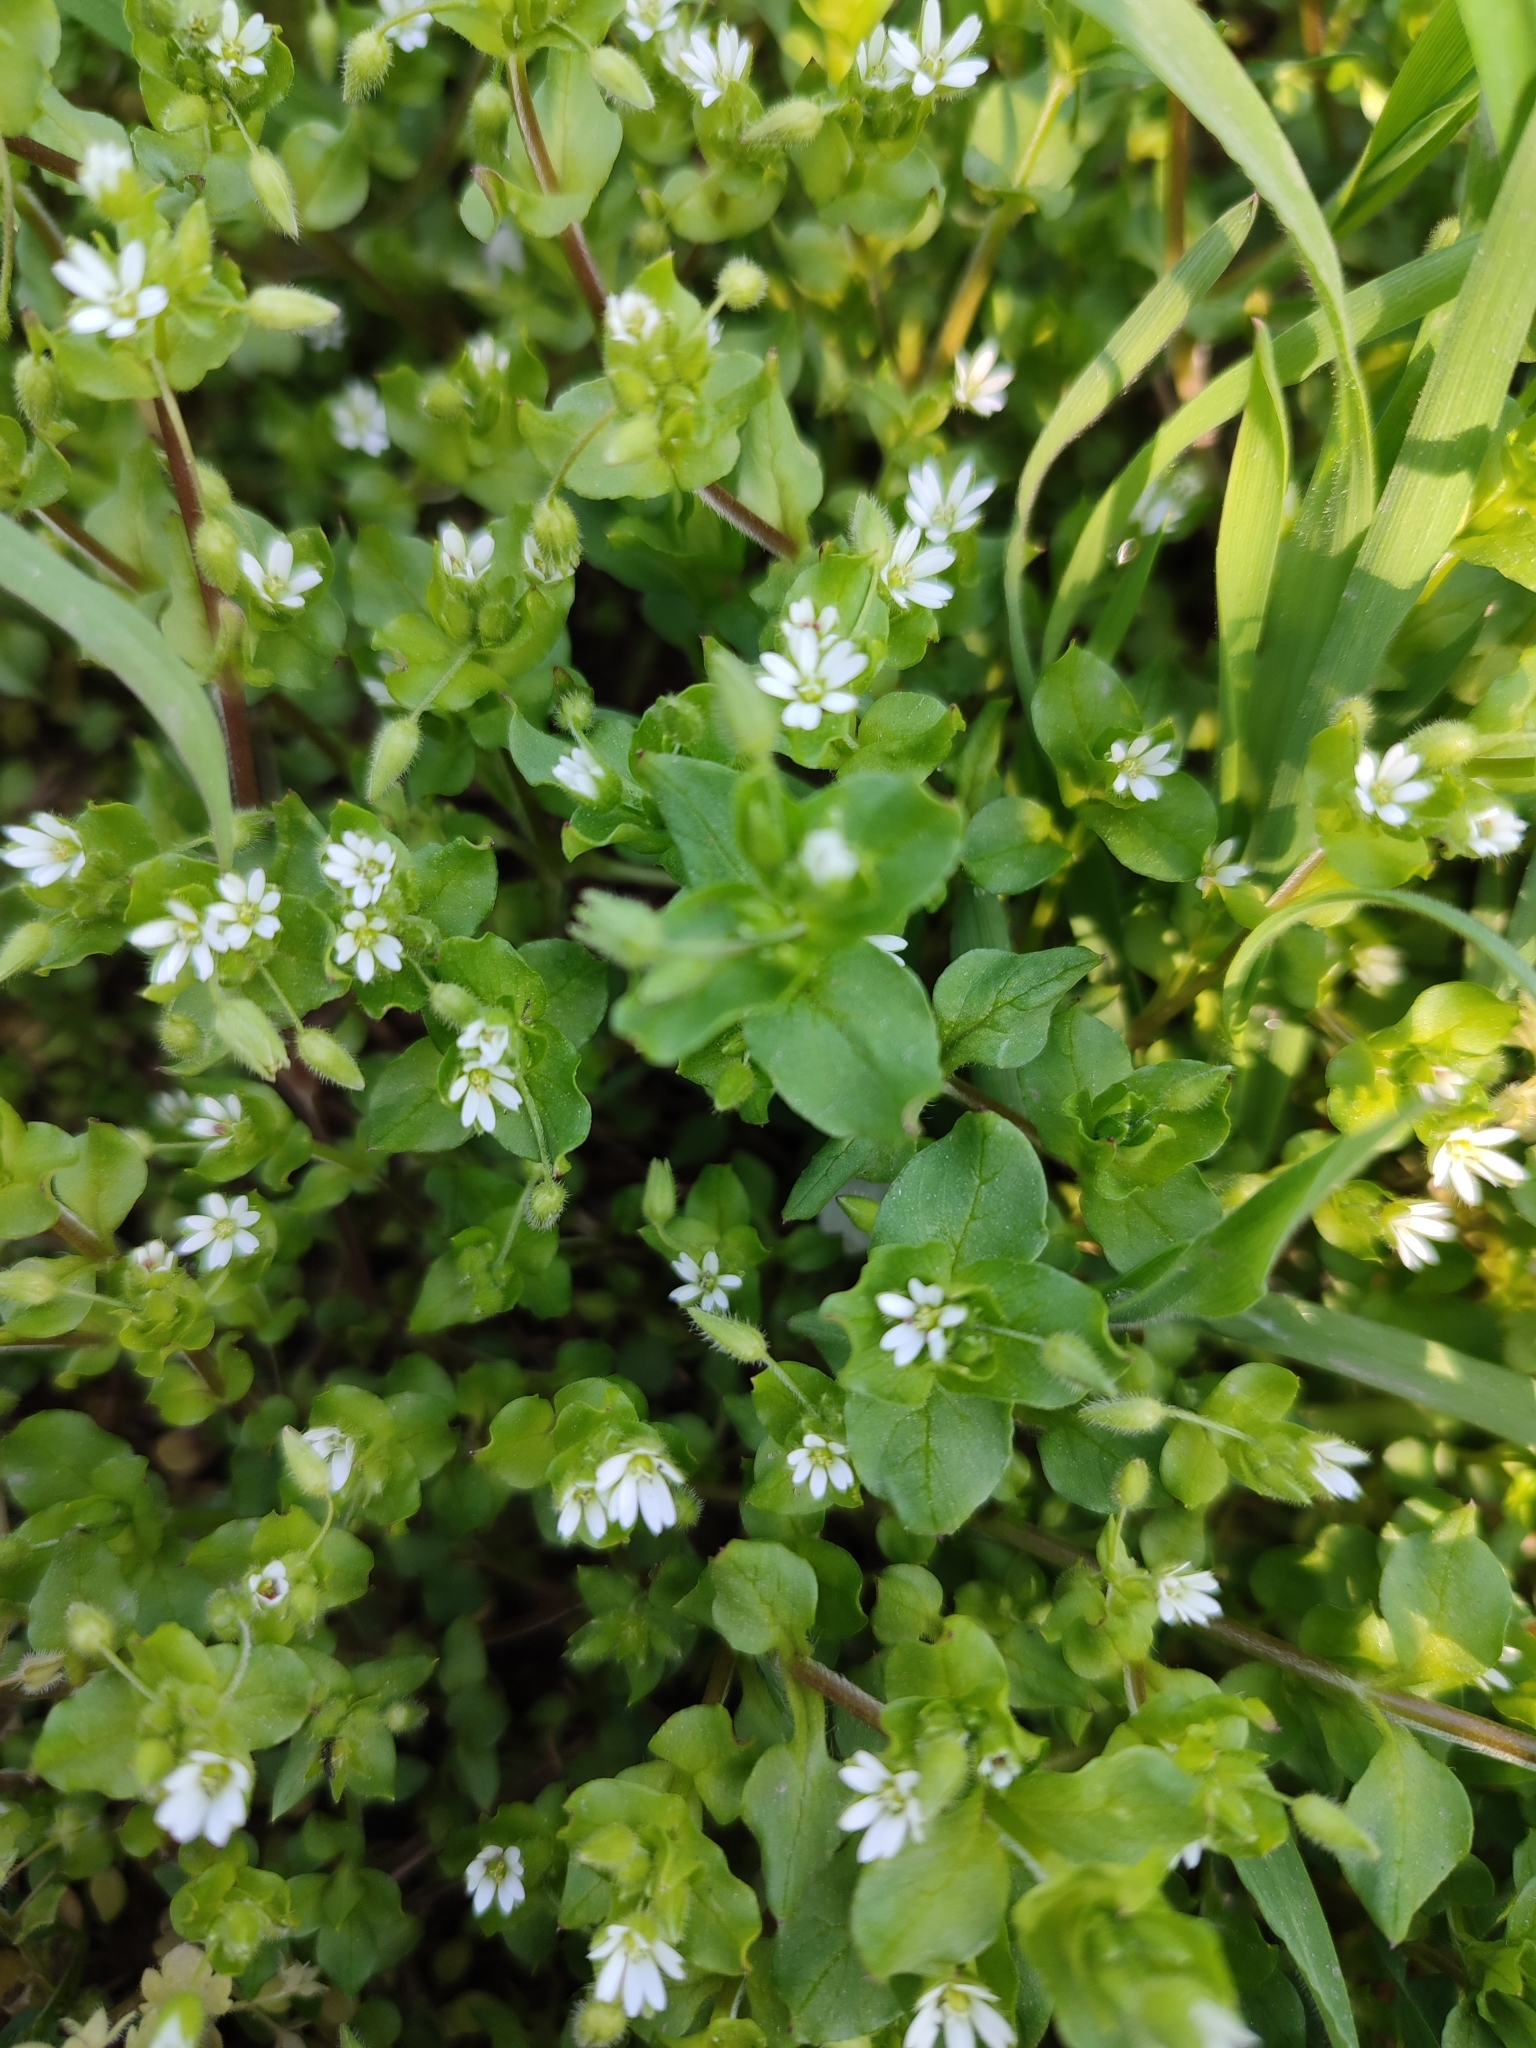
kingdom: Plantae
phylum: Tracheophyta
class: Magnoliopsida
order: Caryophyllales
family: Caryophyllaceae
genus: Stellaria
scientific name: Stellaria neglecta
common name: Greater chickweed
